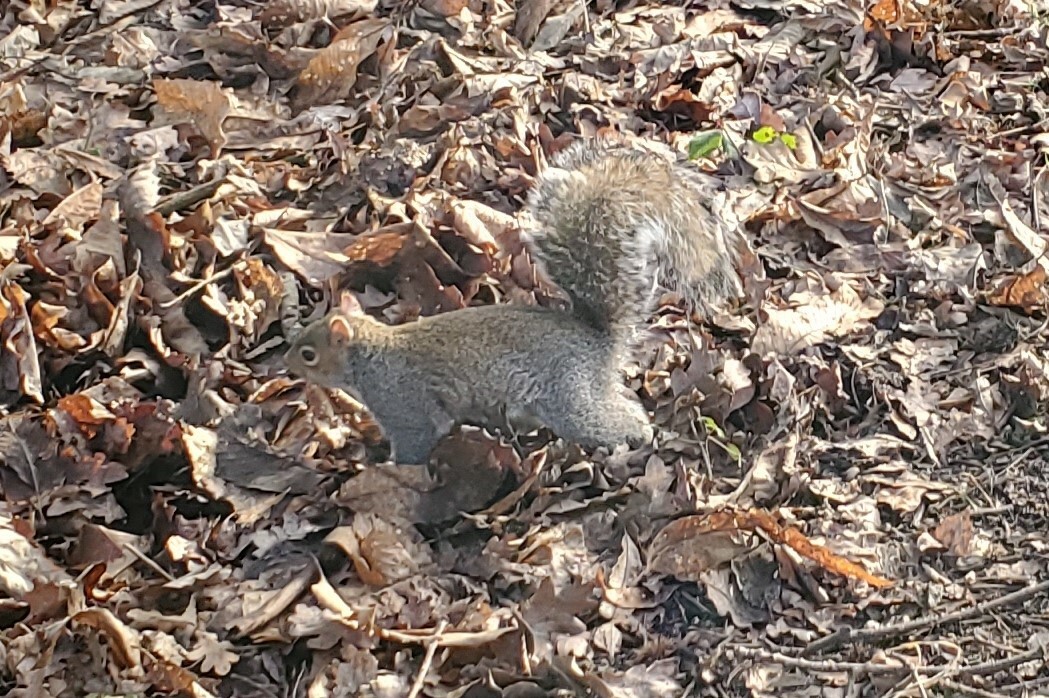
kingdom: Animalia
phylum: Chordata
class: Mammalia
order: Rodentia
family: Sciuridae
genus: Sciurus
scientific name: Sciurus carolinensis
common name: Eastern gray squirrel
